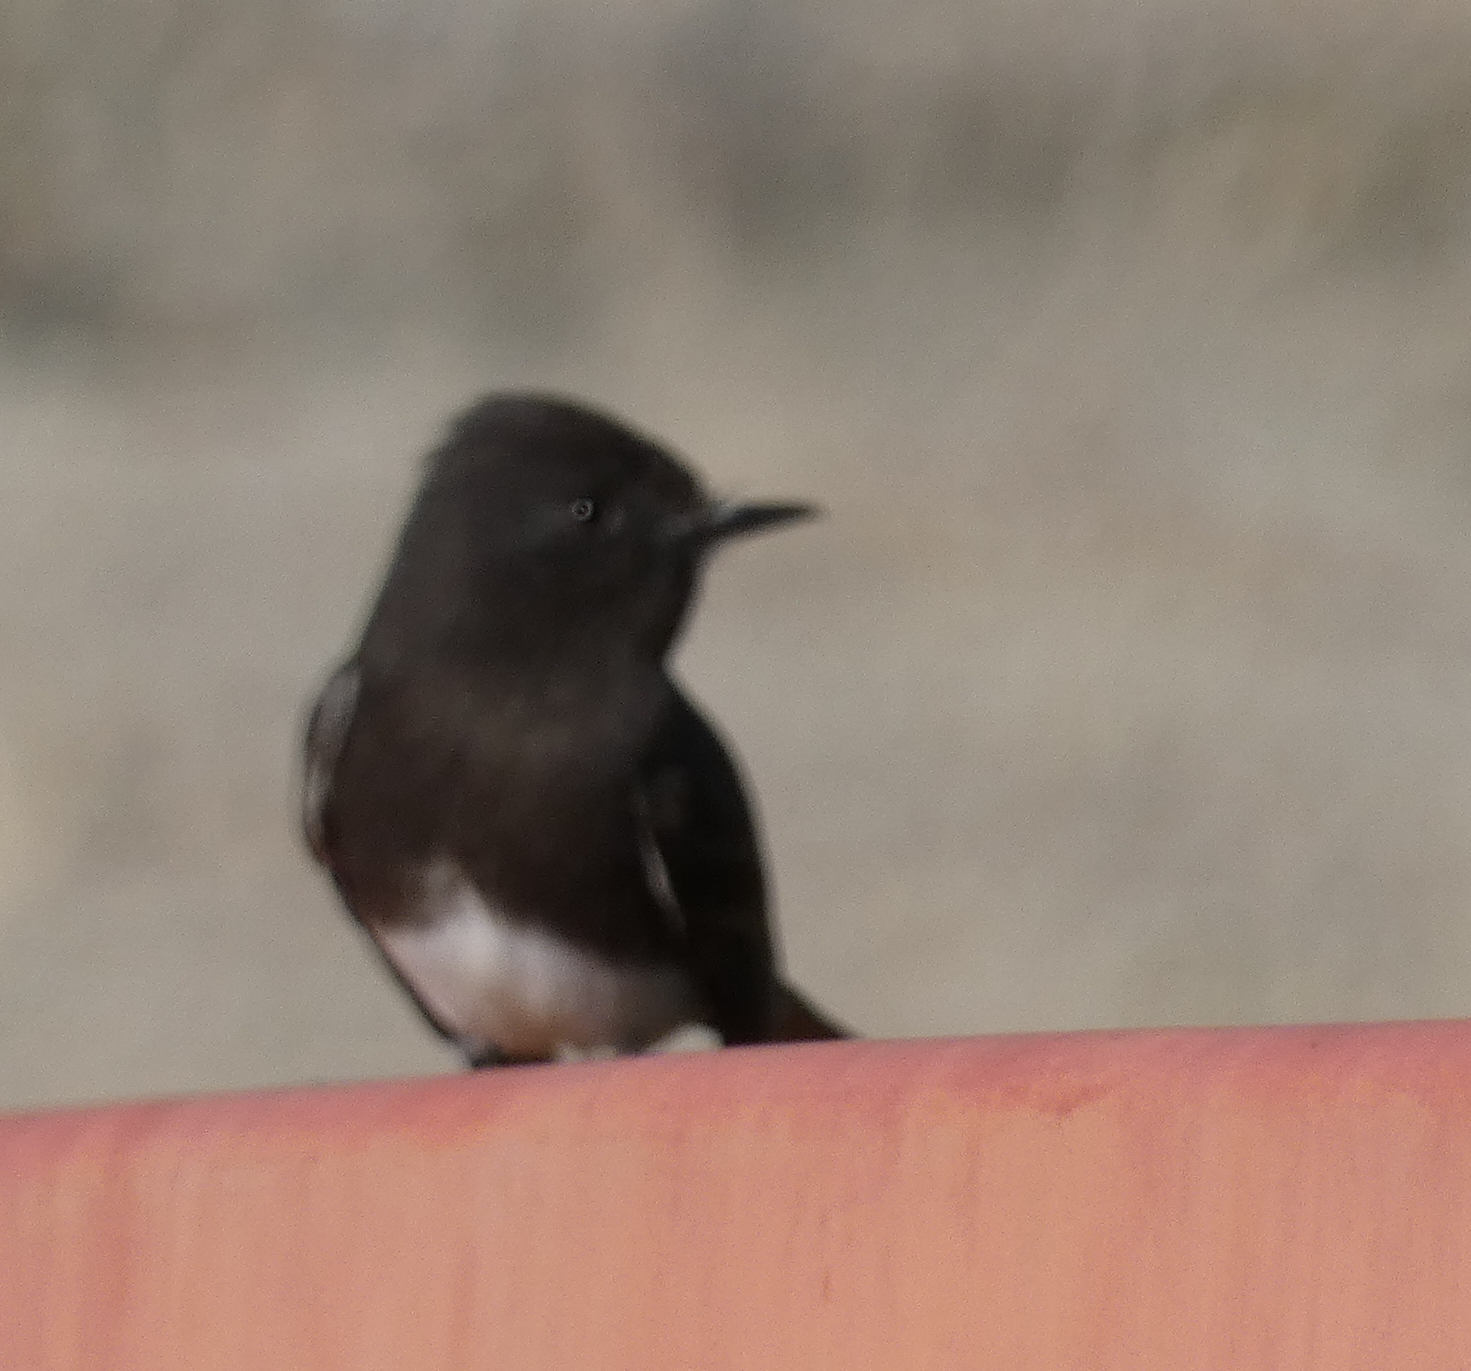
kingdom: Animalia
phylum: Chordata
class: Aves
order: Passeriformes
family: Tyrannidae
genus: Sayornis
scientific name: Sayornis nigricans
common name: Black phoebe
